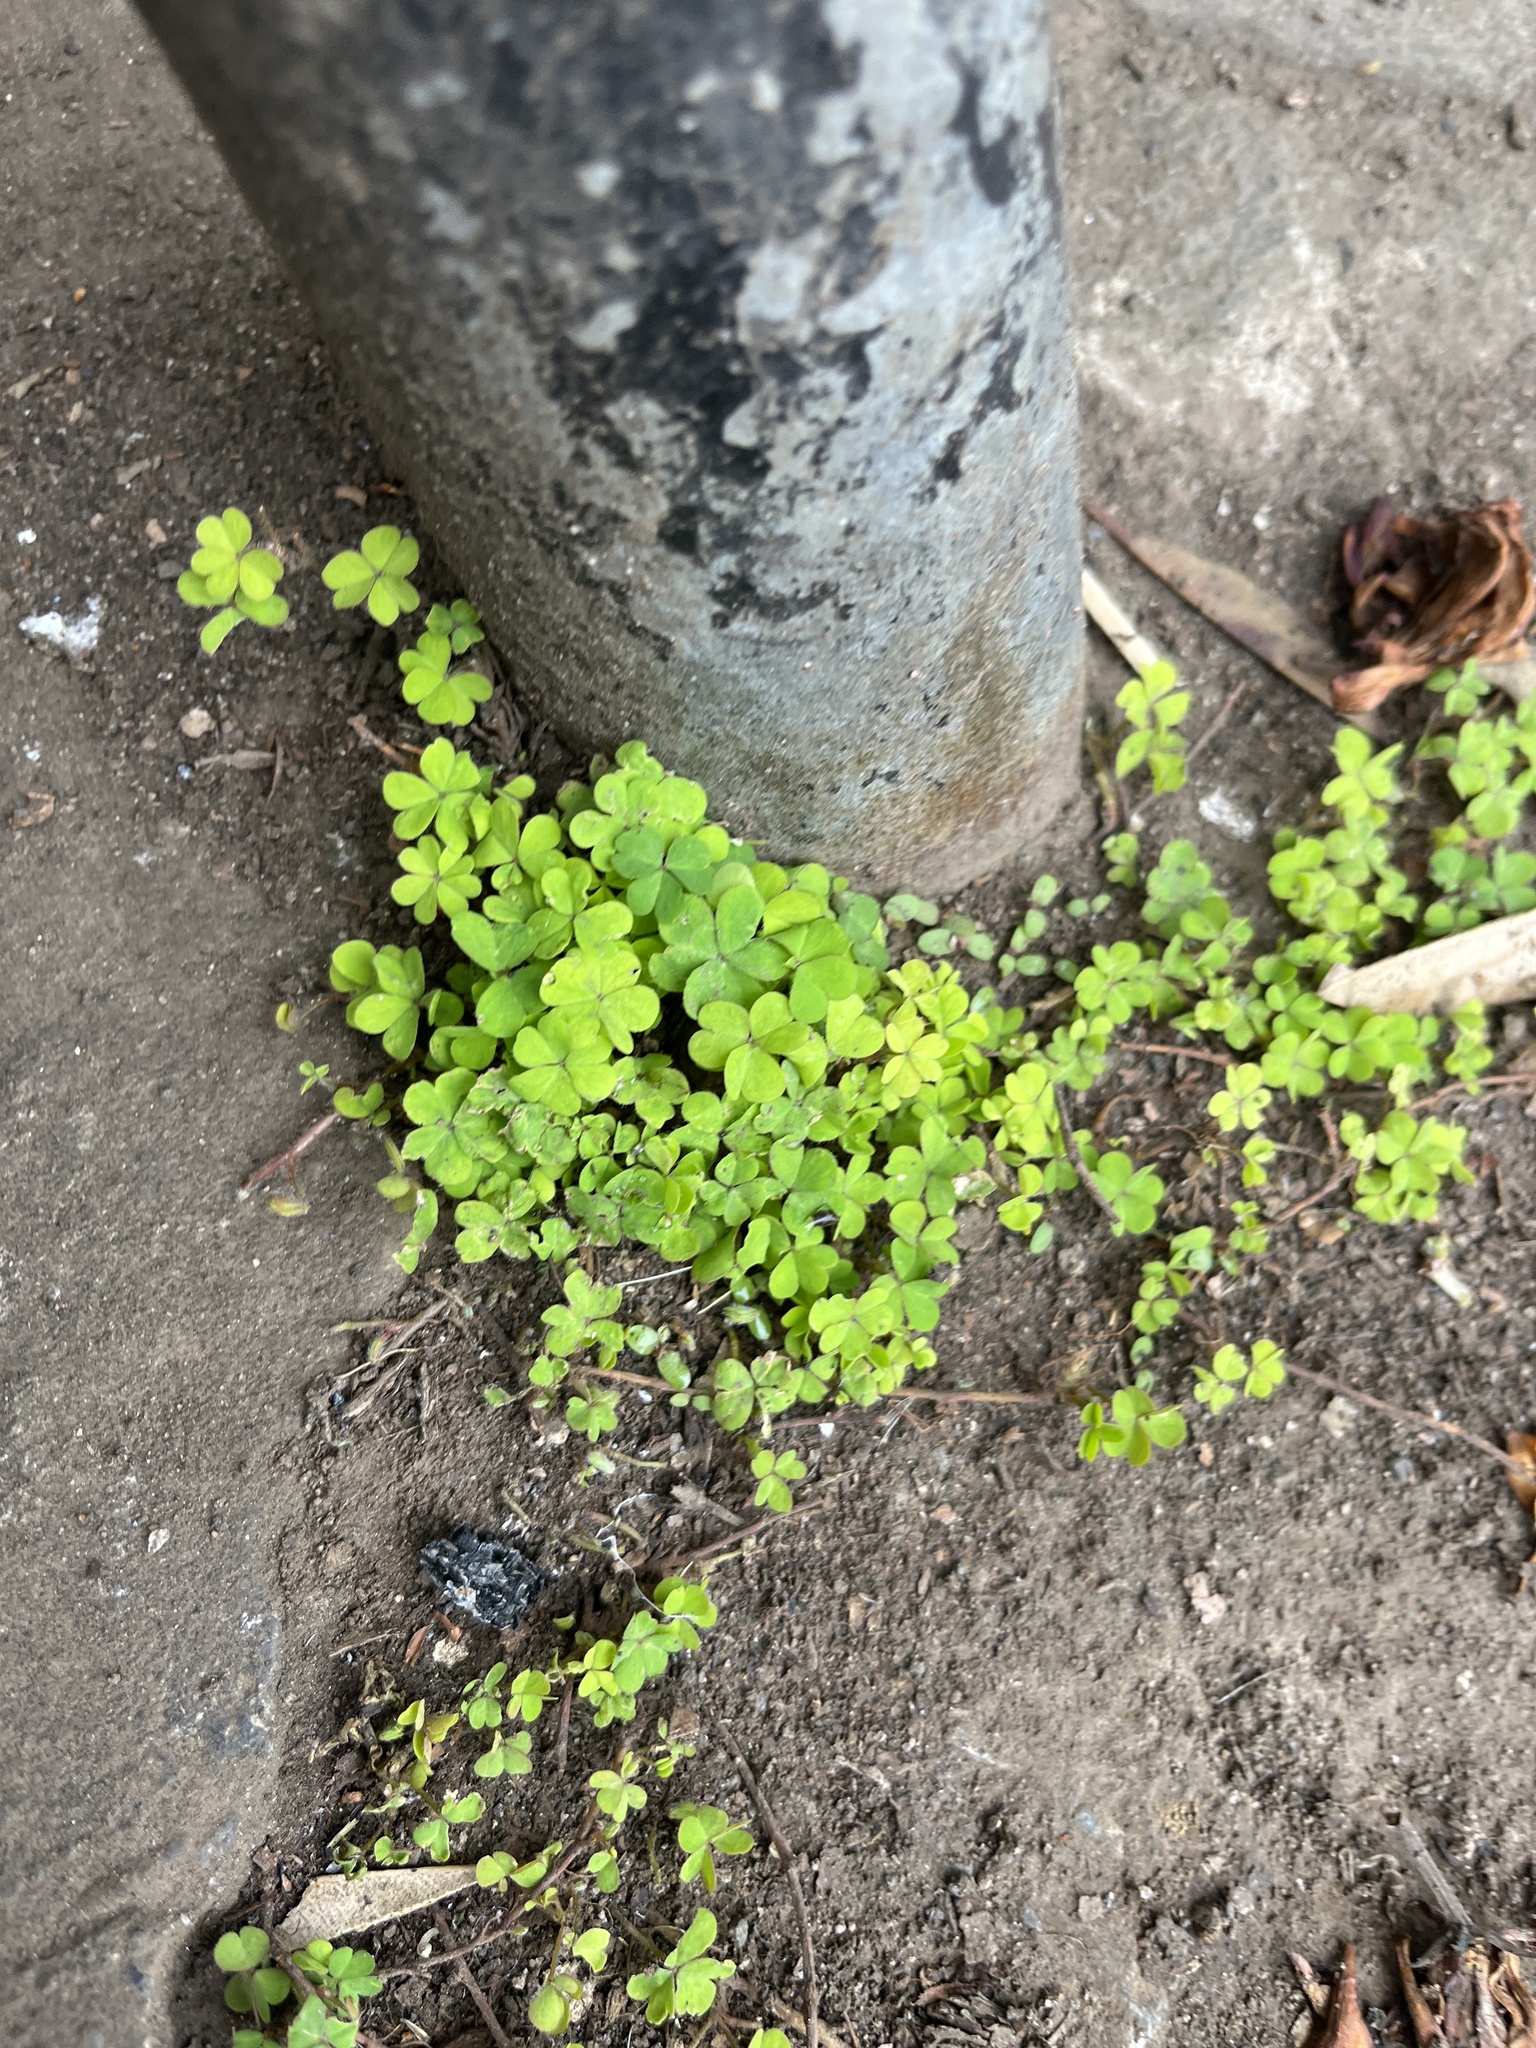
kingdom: Plantae
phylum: Tracheophyta
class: Magnoliopsida
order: Oxalidales
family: Oxalidaceae
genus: Oxalis
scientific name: Oxalis corniculata
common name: Procumbent yellow-sorrel
